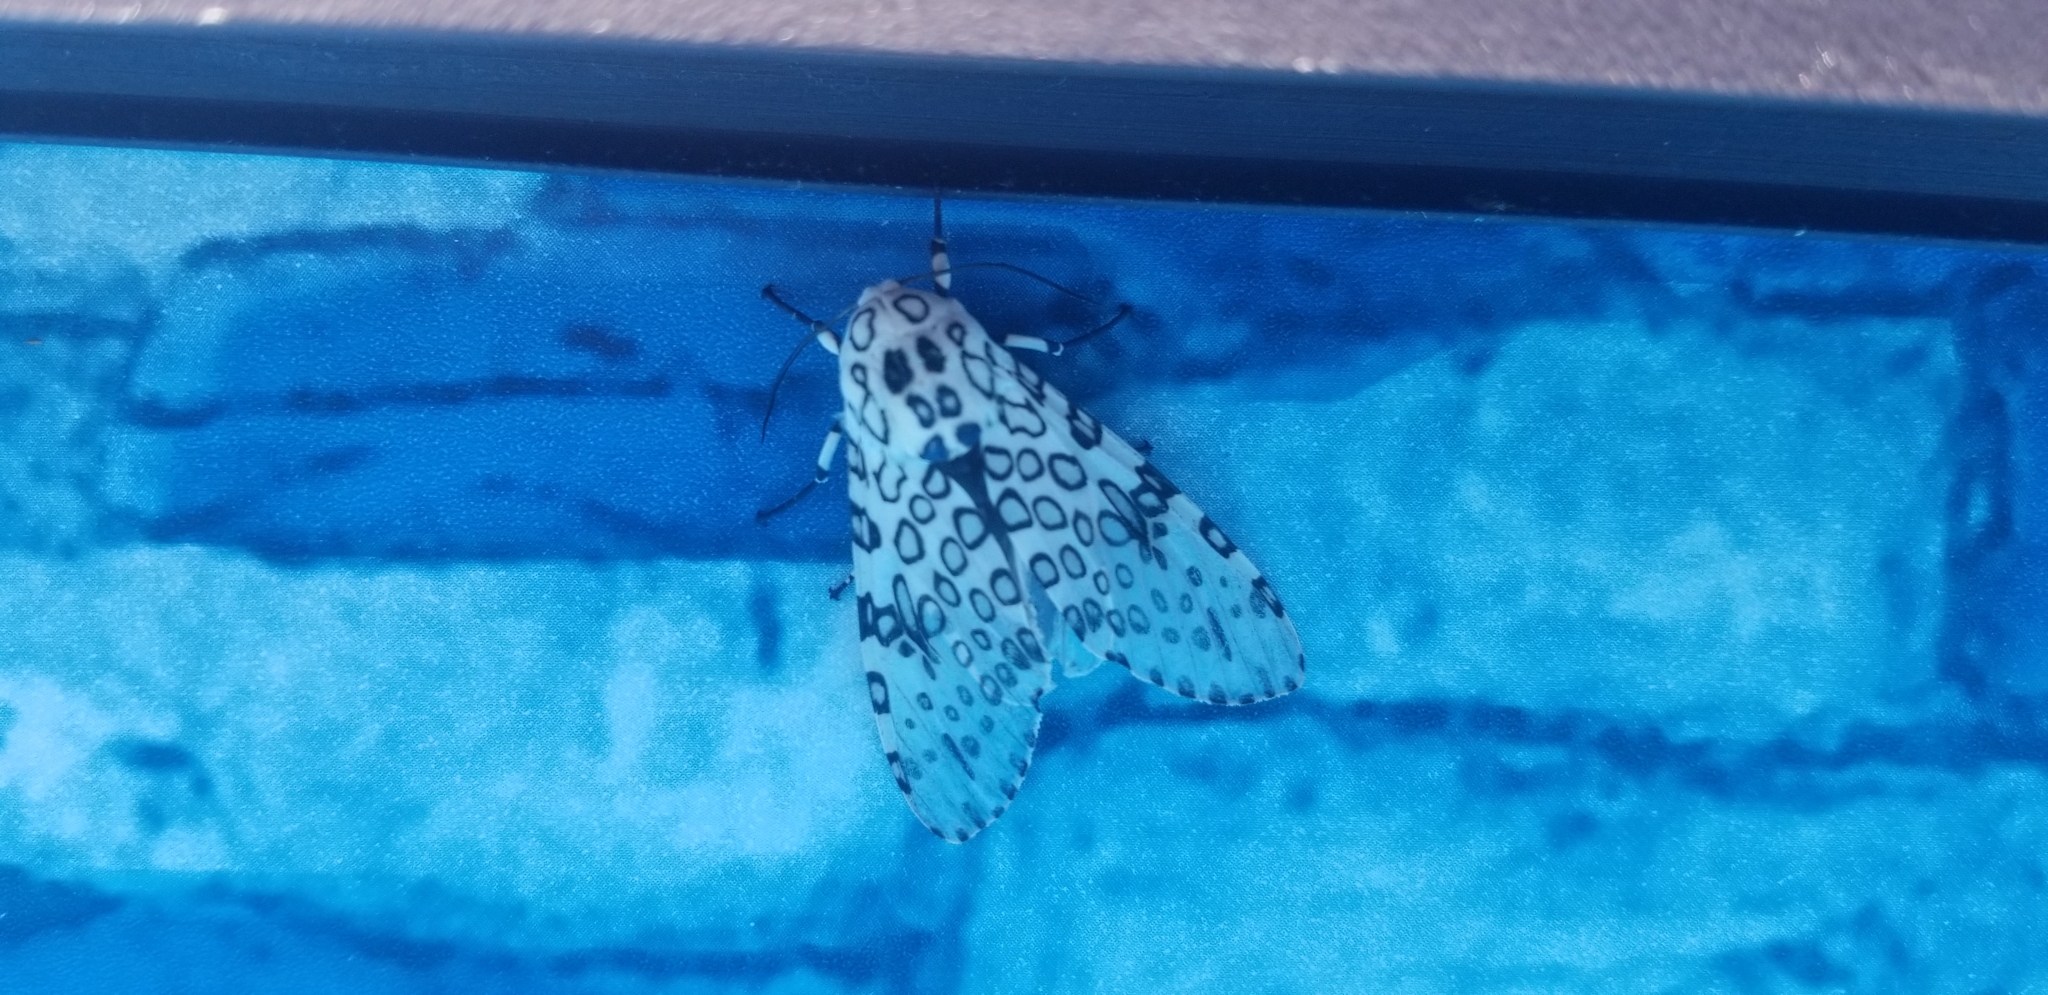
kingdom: Animalia
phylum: Arthropoda
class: Insecta
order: Lepidoptera
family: Erebidae
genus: Hypercompe
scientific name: Hypercompe scribonia
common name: Giant leopard moth
